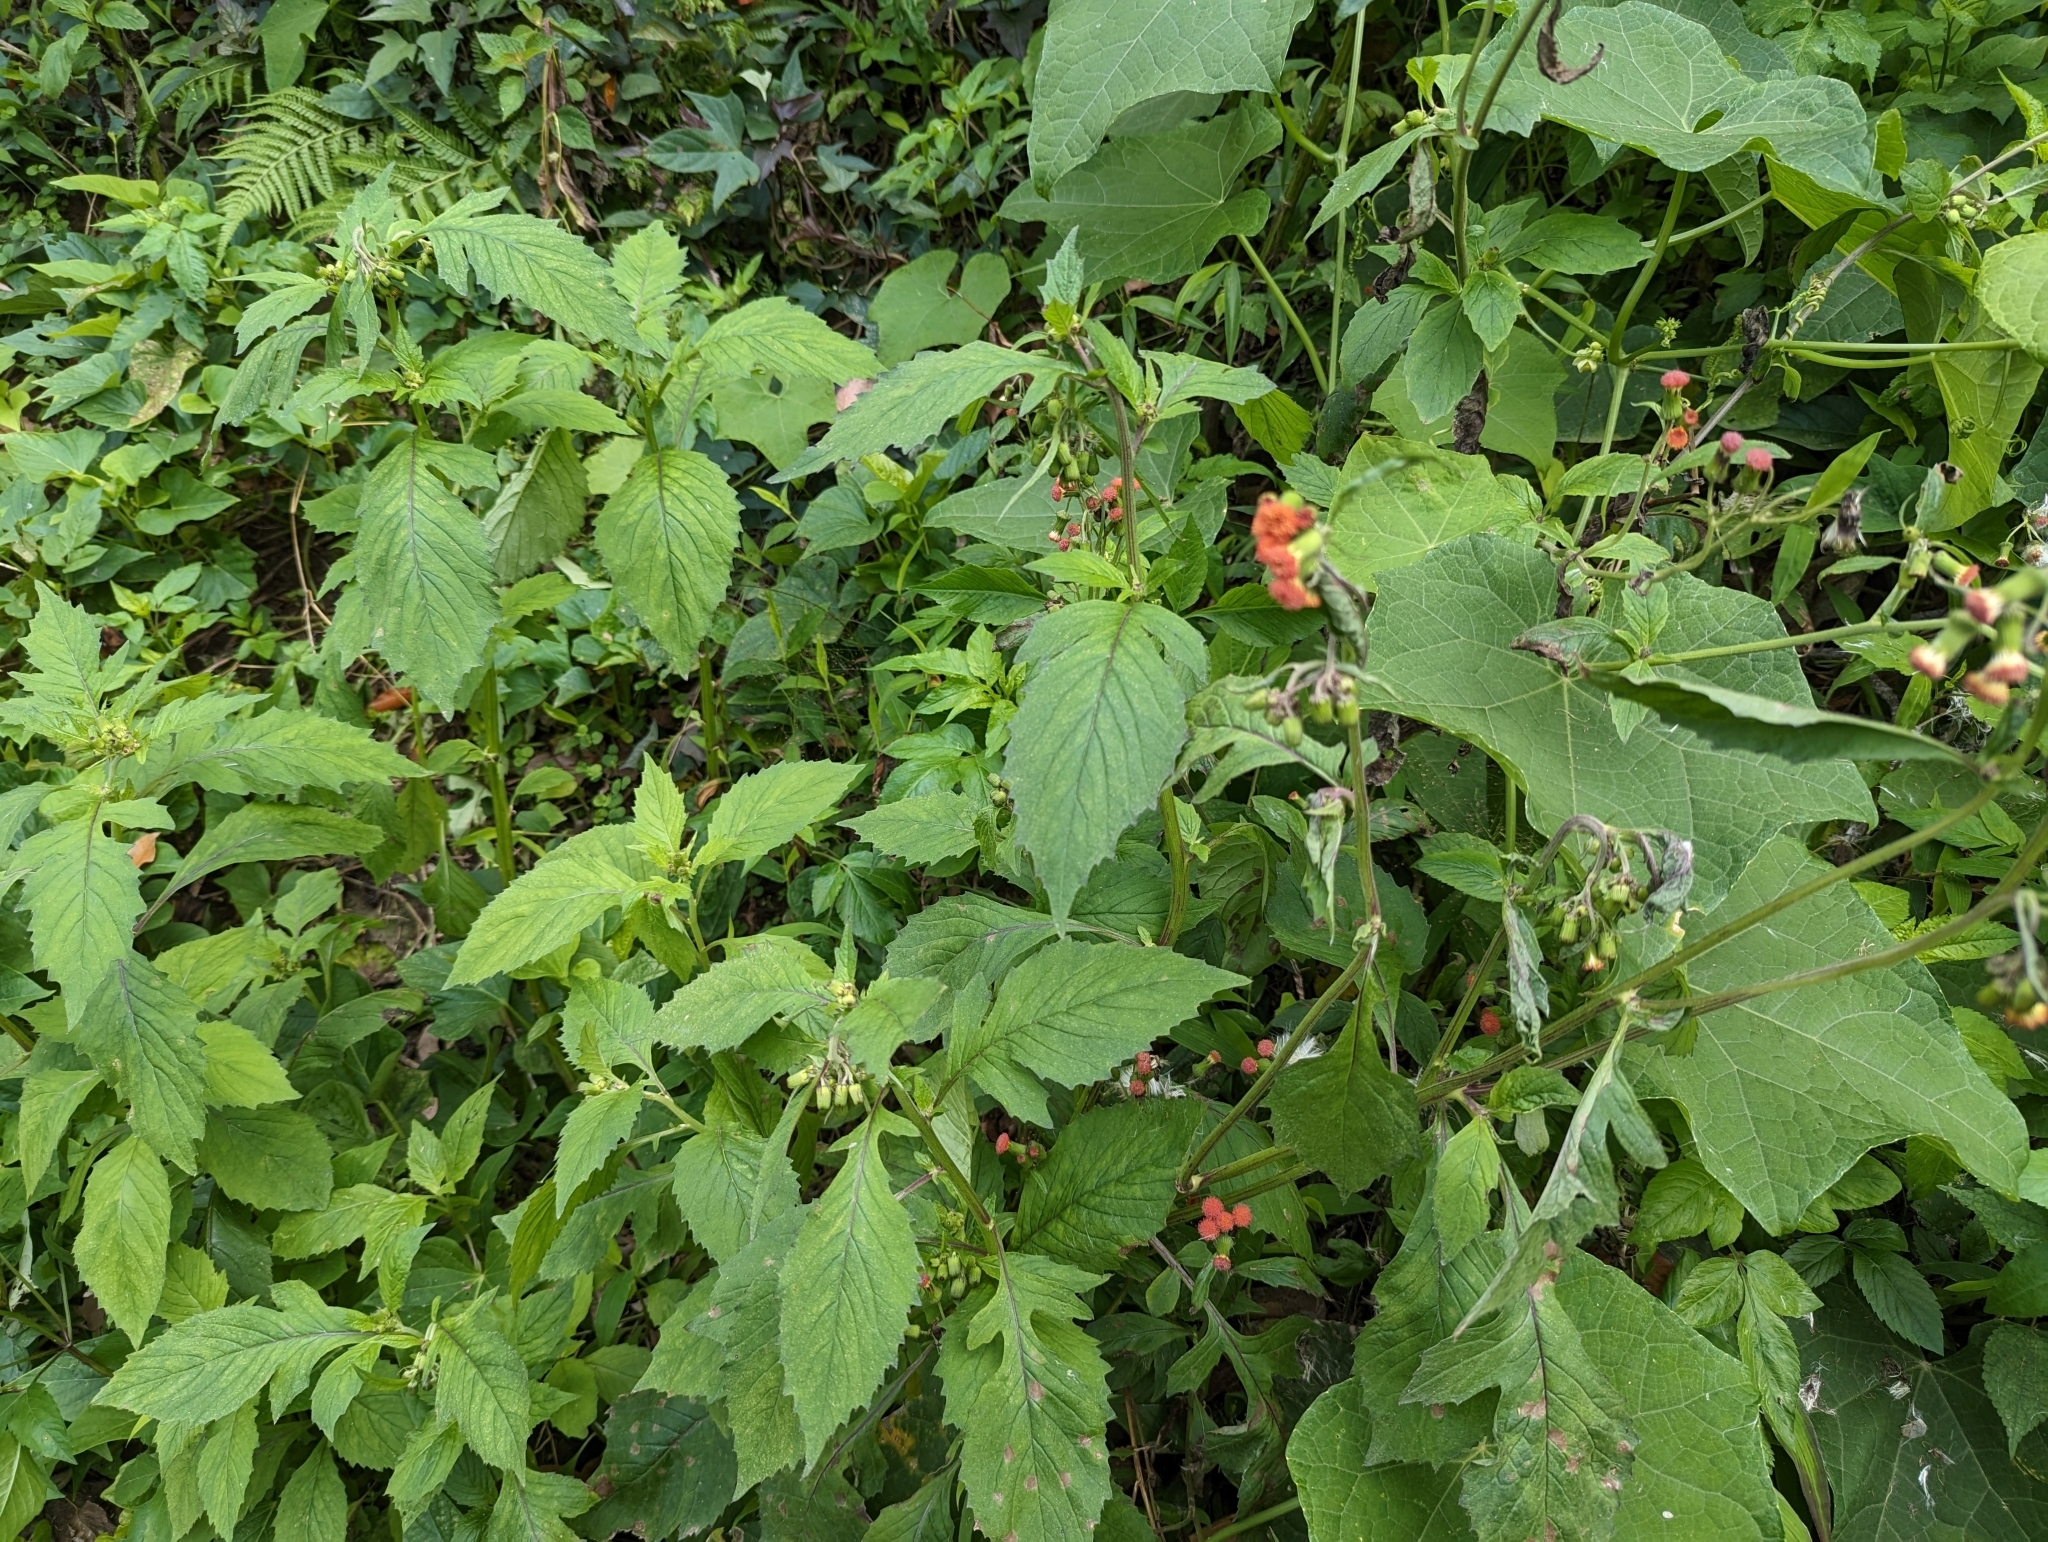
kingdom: Plantae
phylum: Tracheophyta
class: Magnoliopsida
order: Asterales
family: Asteraceae
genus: Crassocephalum
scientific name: Crassocephalum crepidioides
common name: Redflower ragleaf
